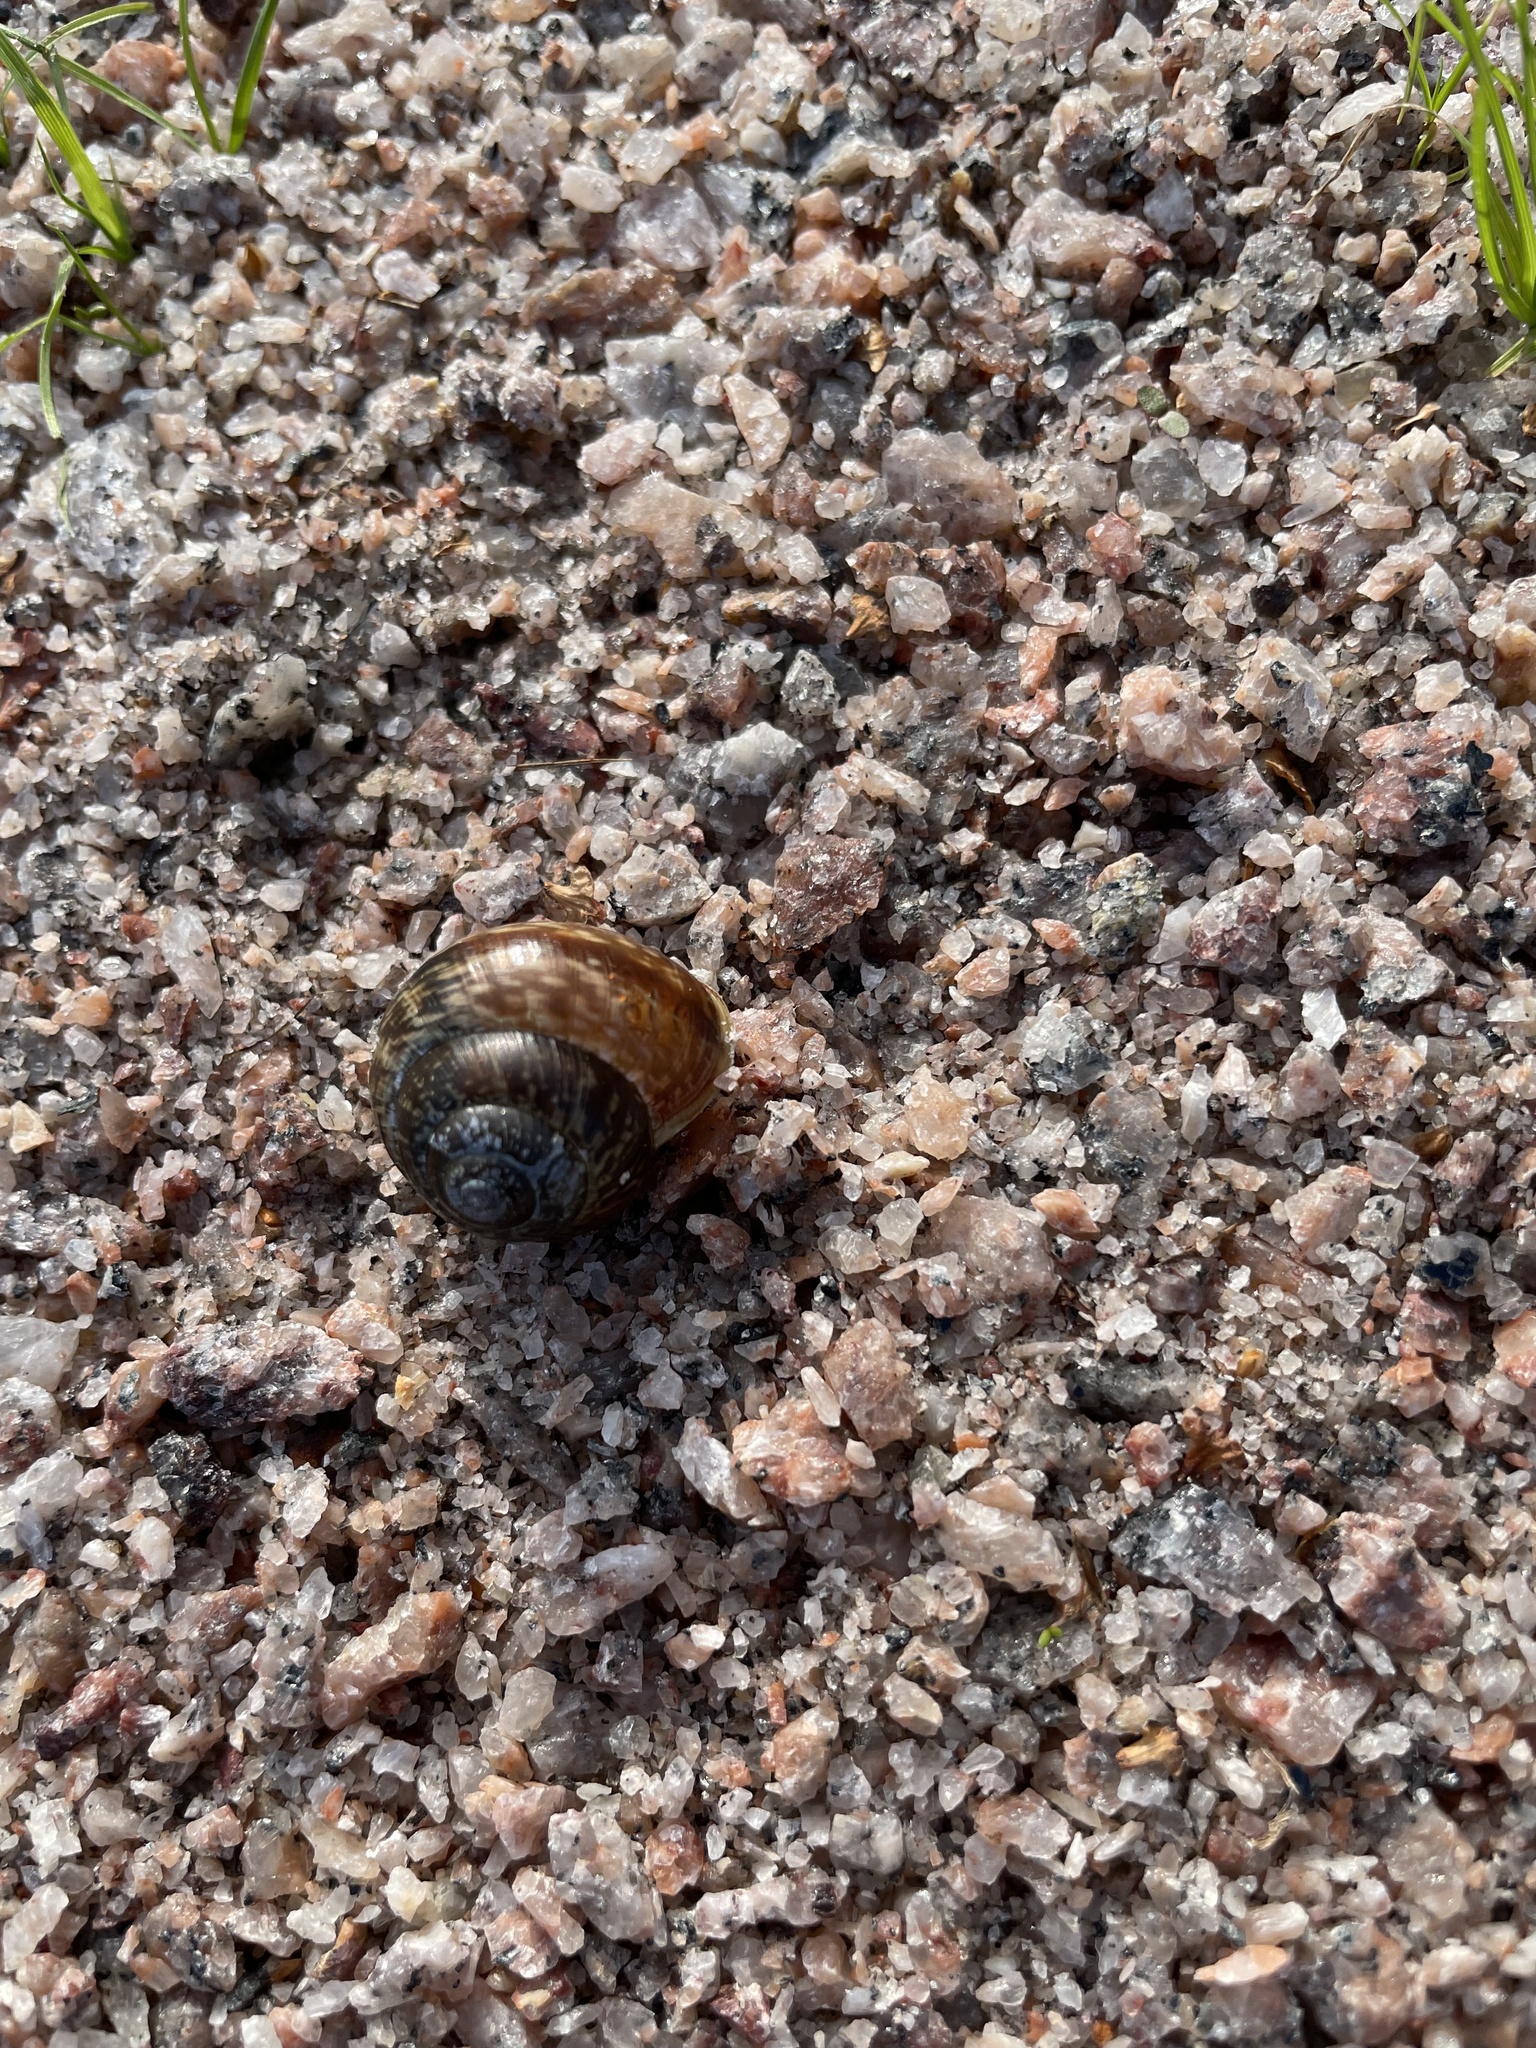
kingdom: Animalia
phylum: Mollusca
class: Gastropoda
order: Stylommatophora
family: Helicidae
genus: Arianta
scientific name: Arianta arbustorum
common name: Copse snail
